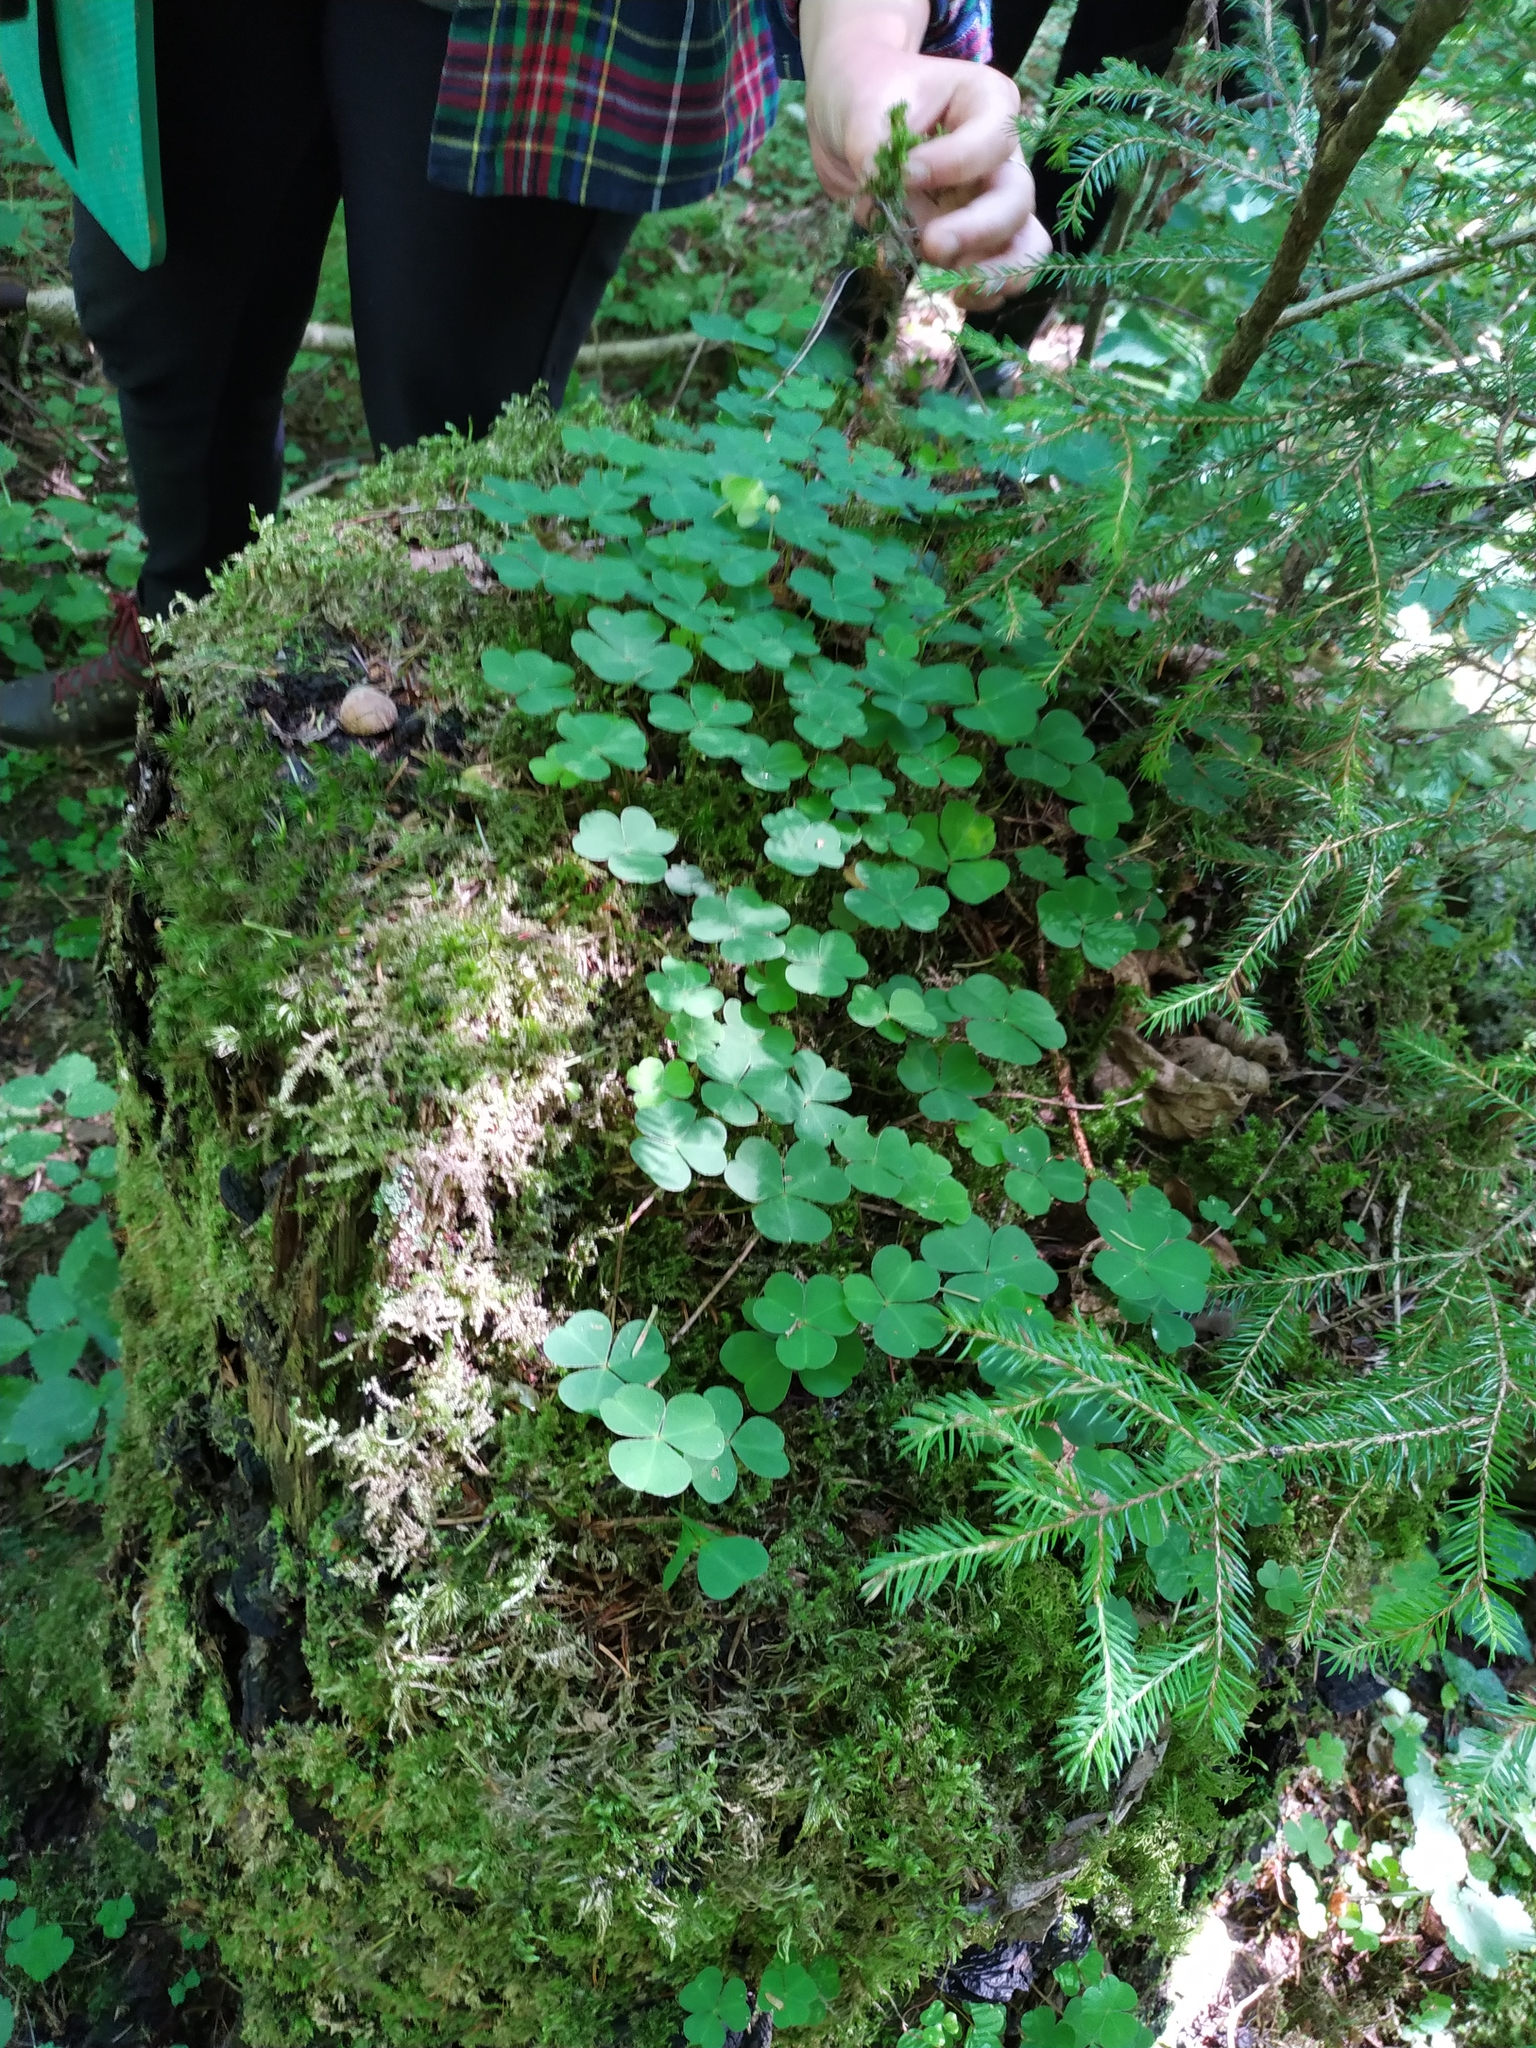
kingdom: Plantae
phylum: Tracheophyta
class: Magnoliopsida
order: Oxalidales
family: Oxalidaceae
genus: Oxalis
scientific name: Oxalis acetosella
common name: Wood-sorrel
